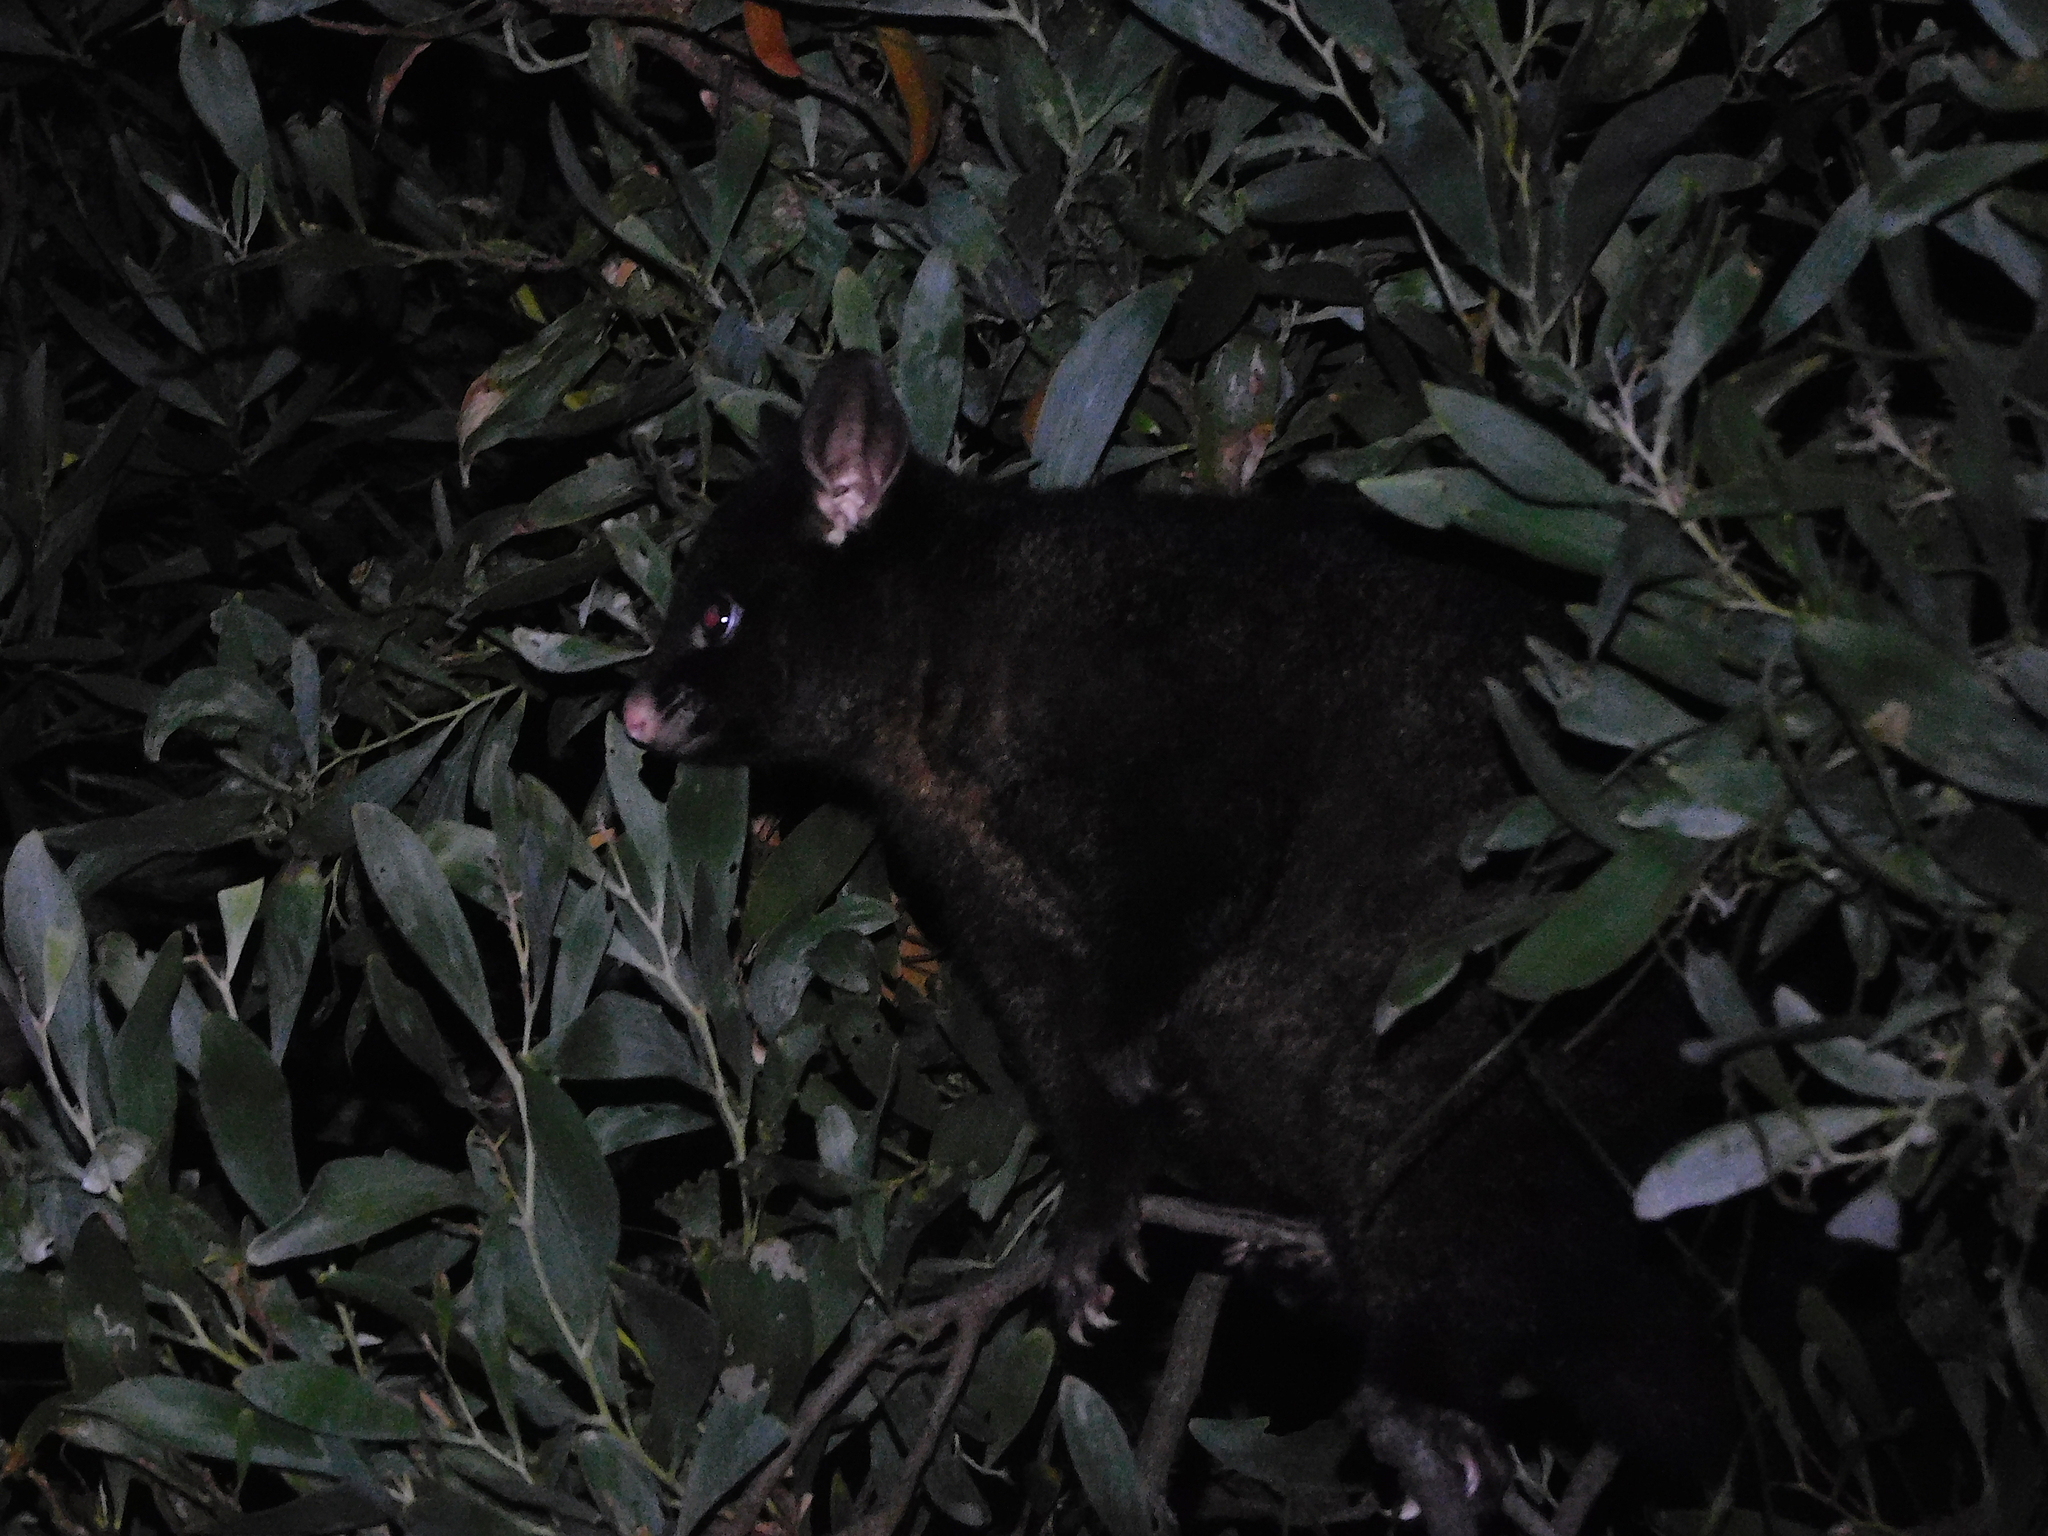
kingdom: Animalia
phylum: Chordata
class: Mammalia
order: Diprotodontia
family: Phalangeridae
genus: Trichosurus
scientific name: Trichosurus vulpecula
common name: Common brushtail
